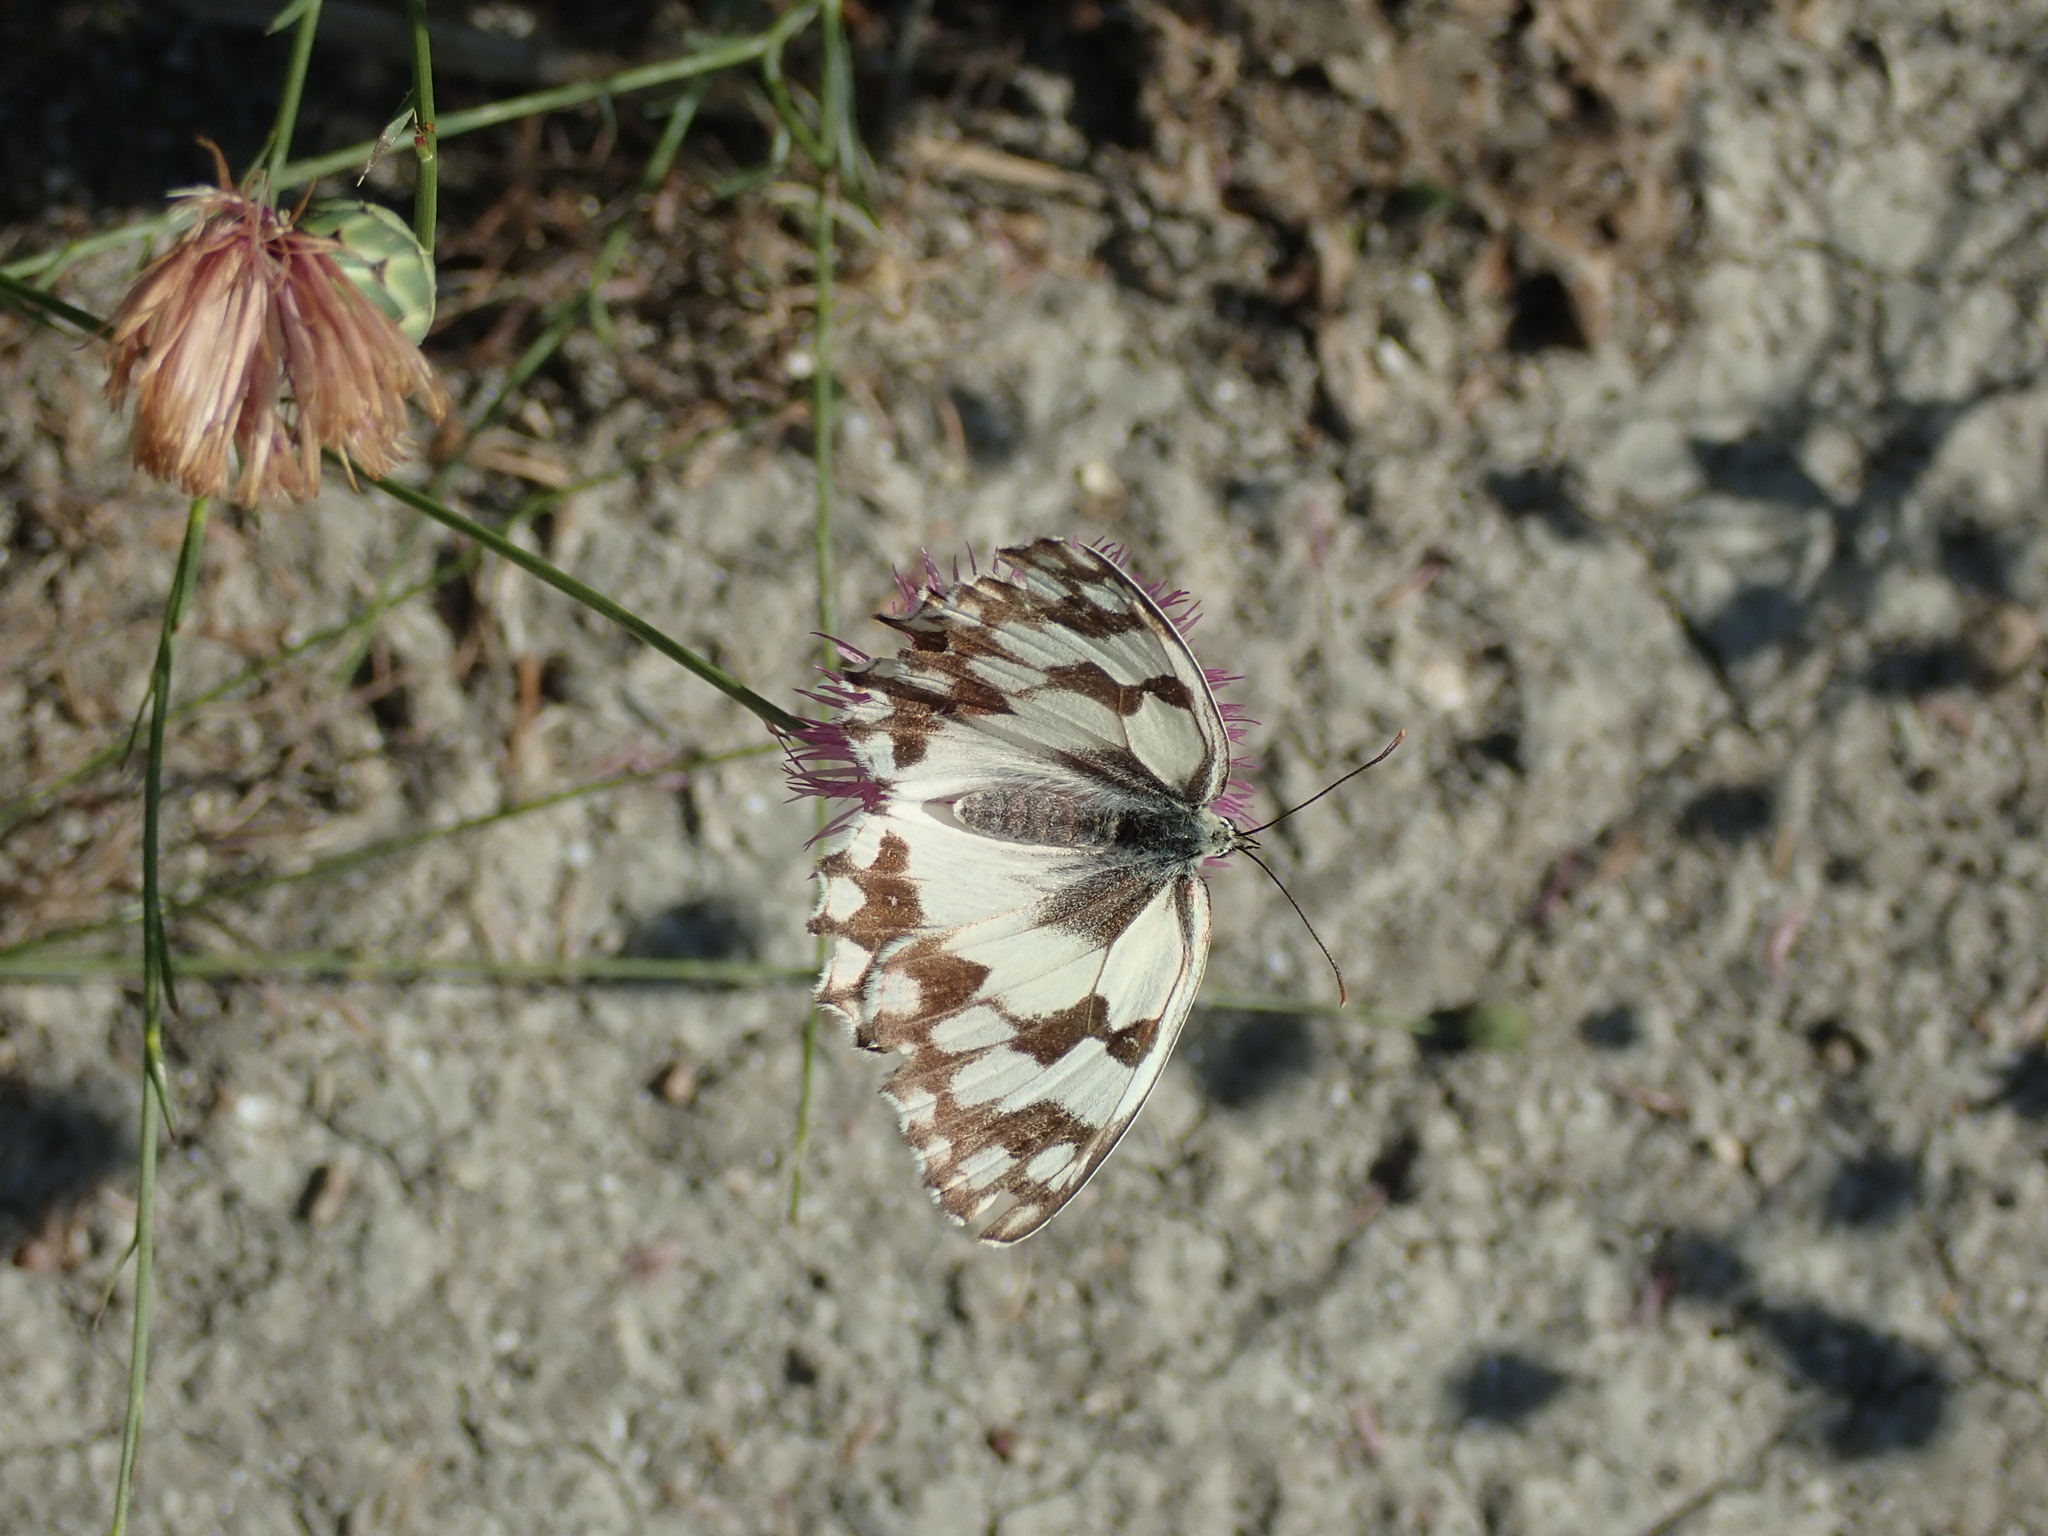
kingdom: Animalia
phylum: Arthropoda
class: Insecta
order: Lepidoptera
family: Nymphalidae
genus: Melanargia
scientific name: Melanargia lachesis
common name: Iberian marbled white
